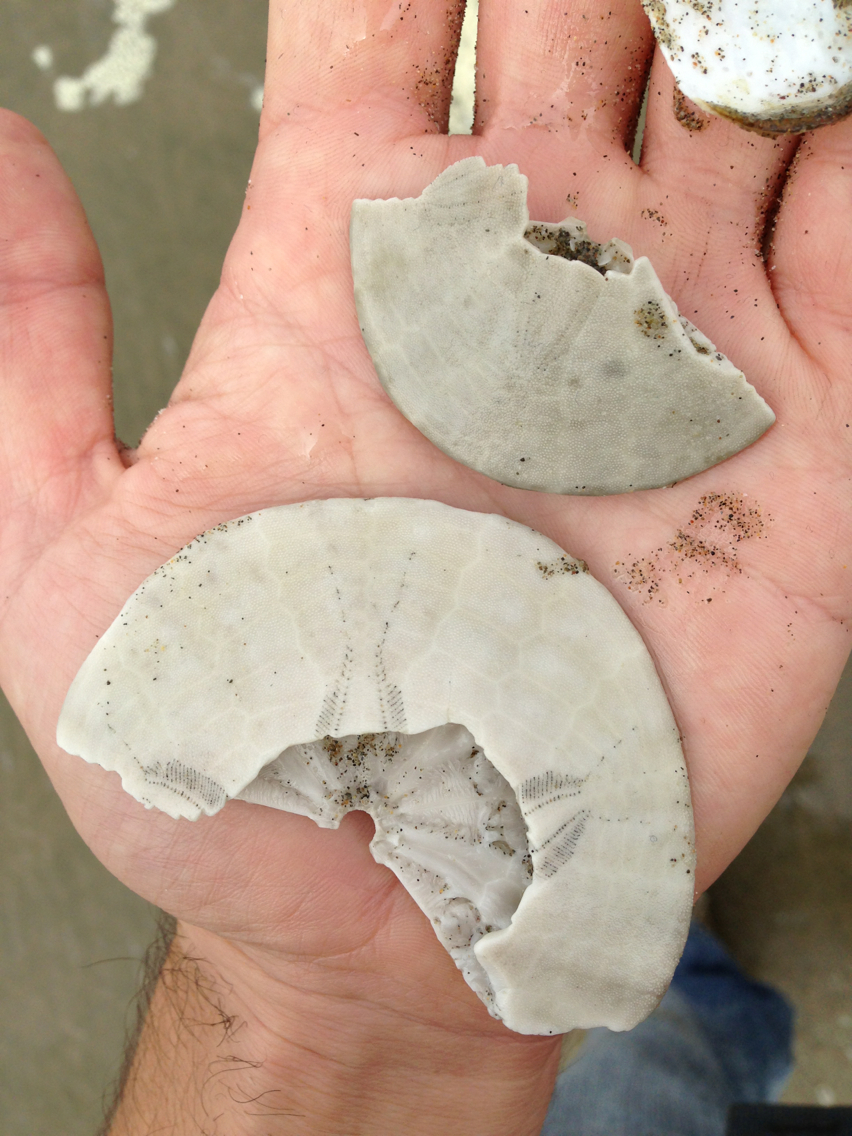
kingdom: Animalia
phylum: Echinodermata
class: Echinoidea
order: Echinolampadacea
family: Dendrasteridae
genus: Dendraster
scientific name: Dendraster excentricus
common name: Eccentric sand dollar sea urchin
